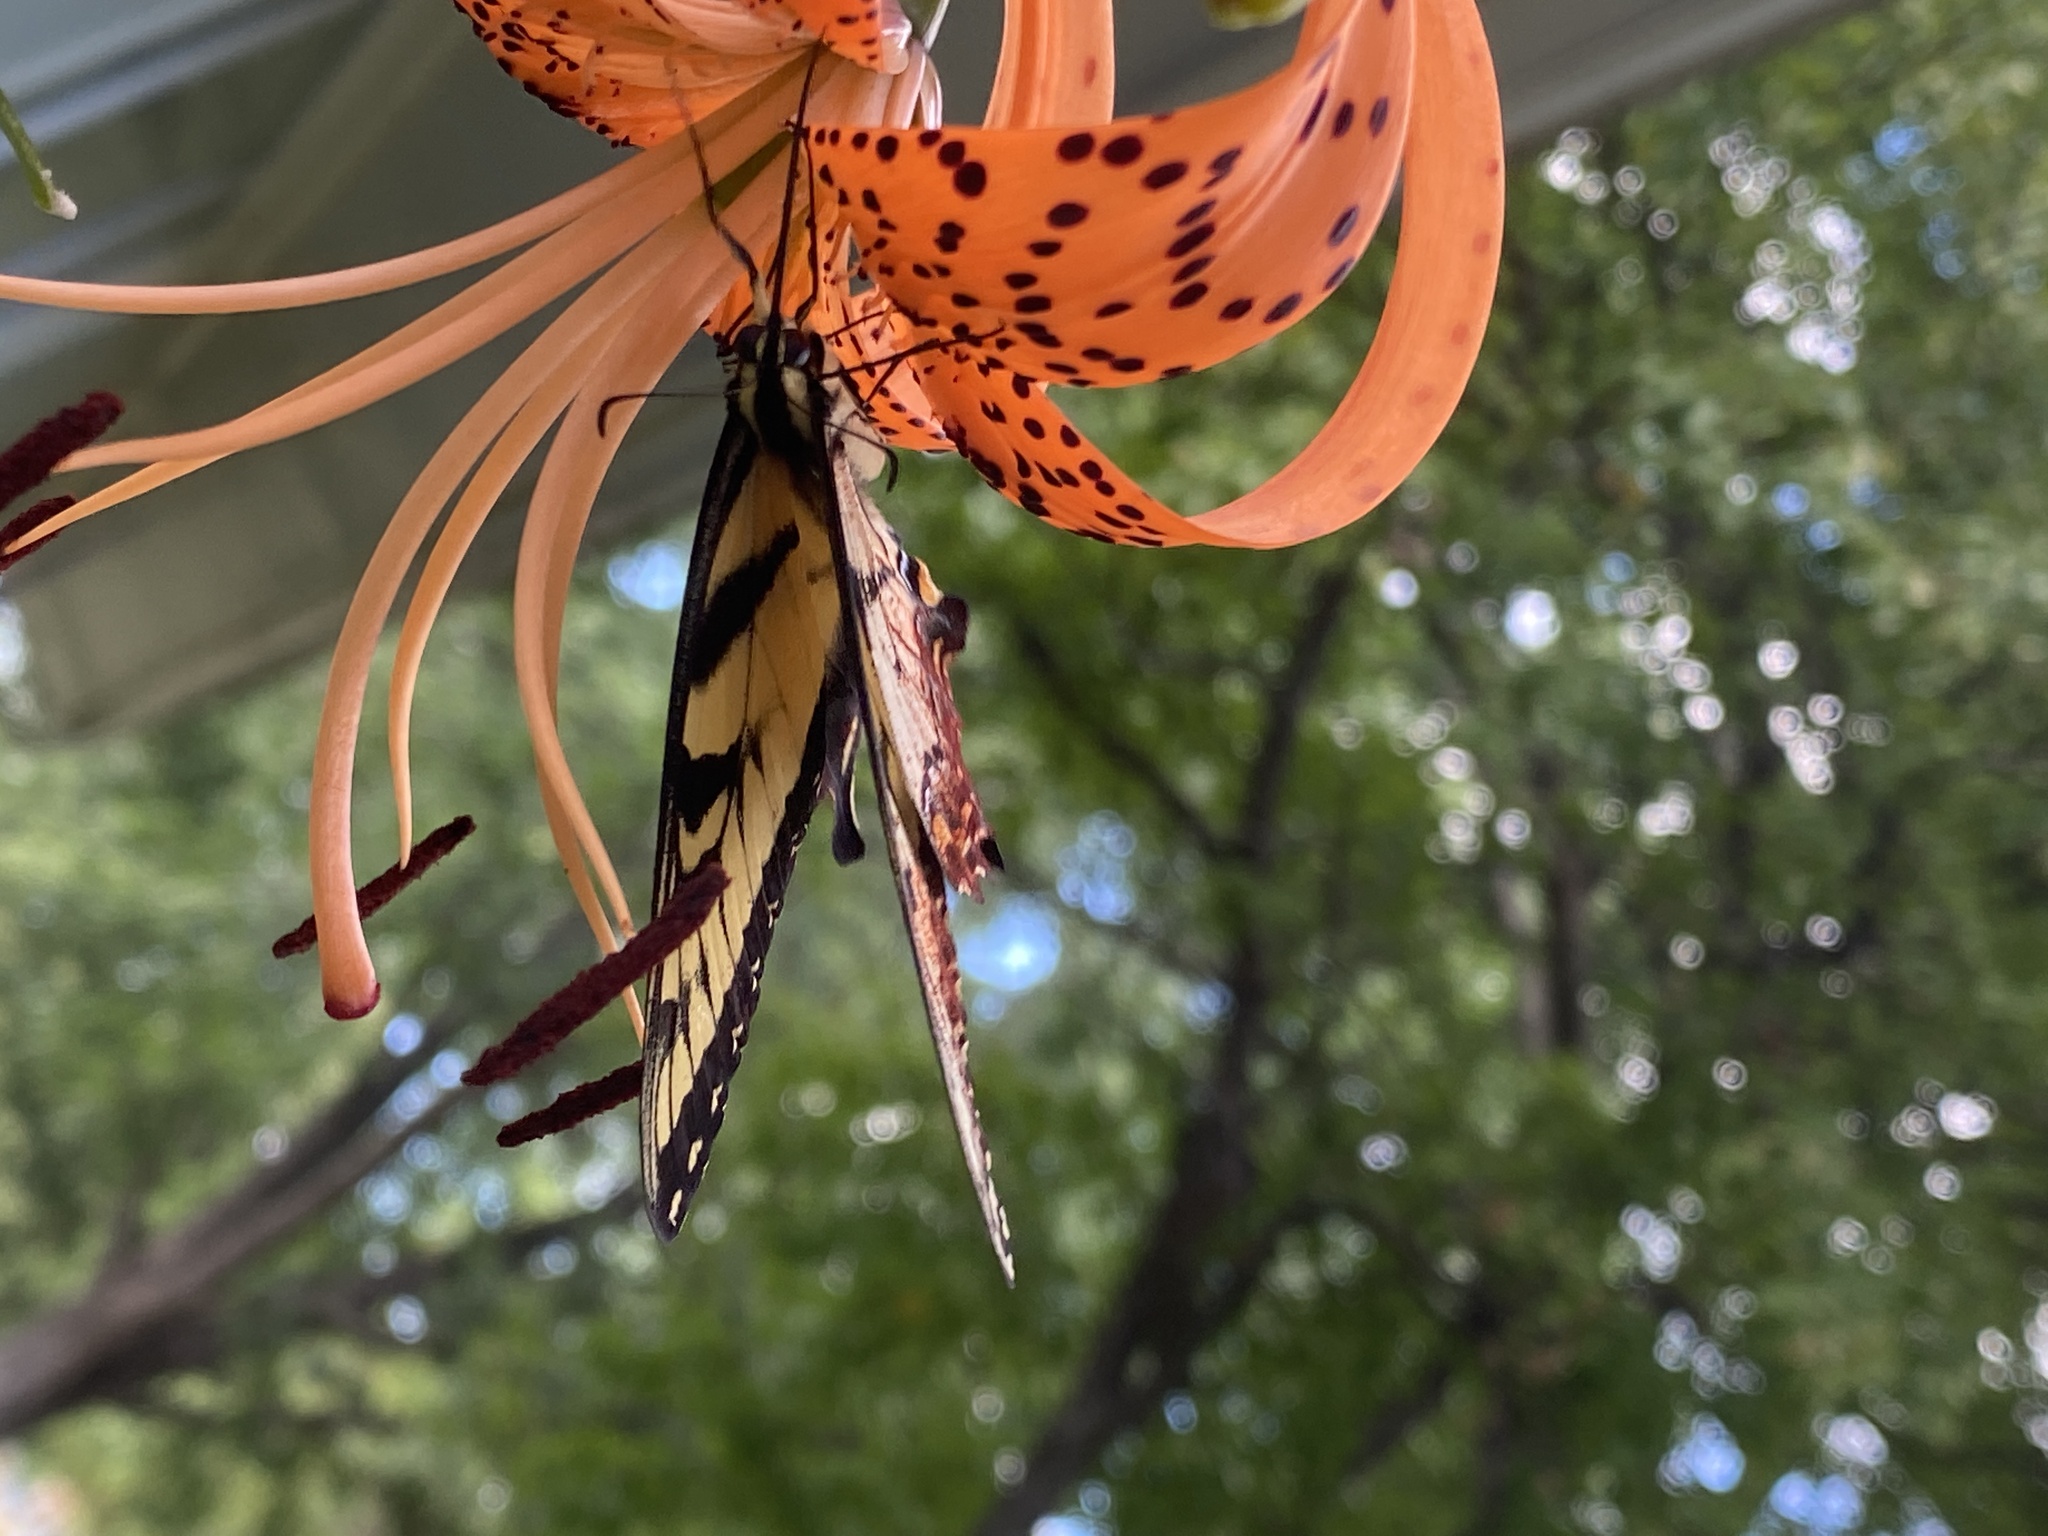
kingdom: Animalia
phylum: Arthropoda
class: Insecta
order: Lepidoptera
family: Papilionidae
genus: Papilio
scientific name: Papilio glaucus
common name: Tiger swallowtail
